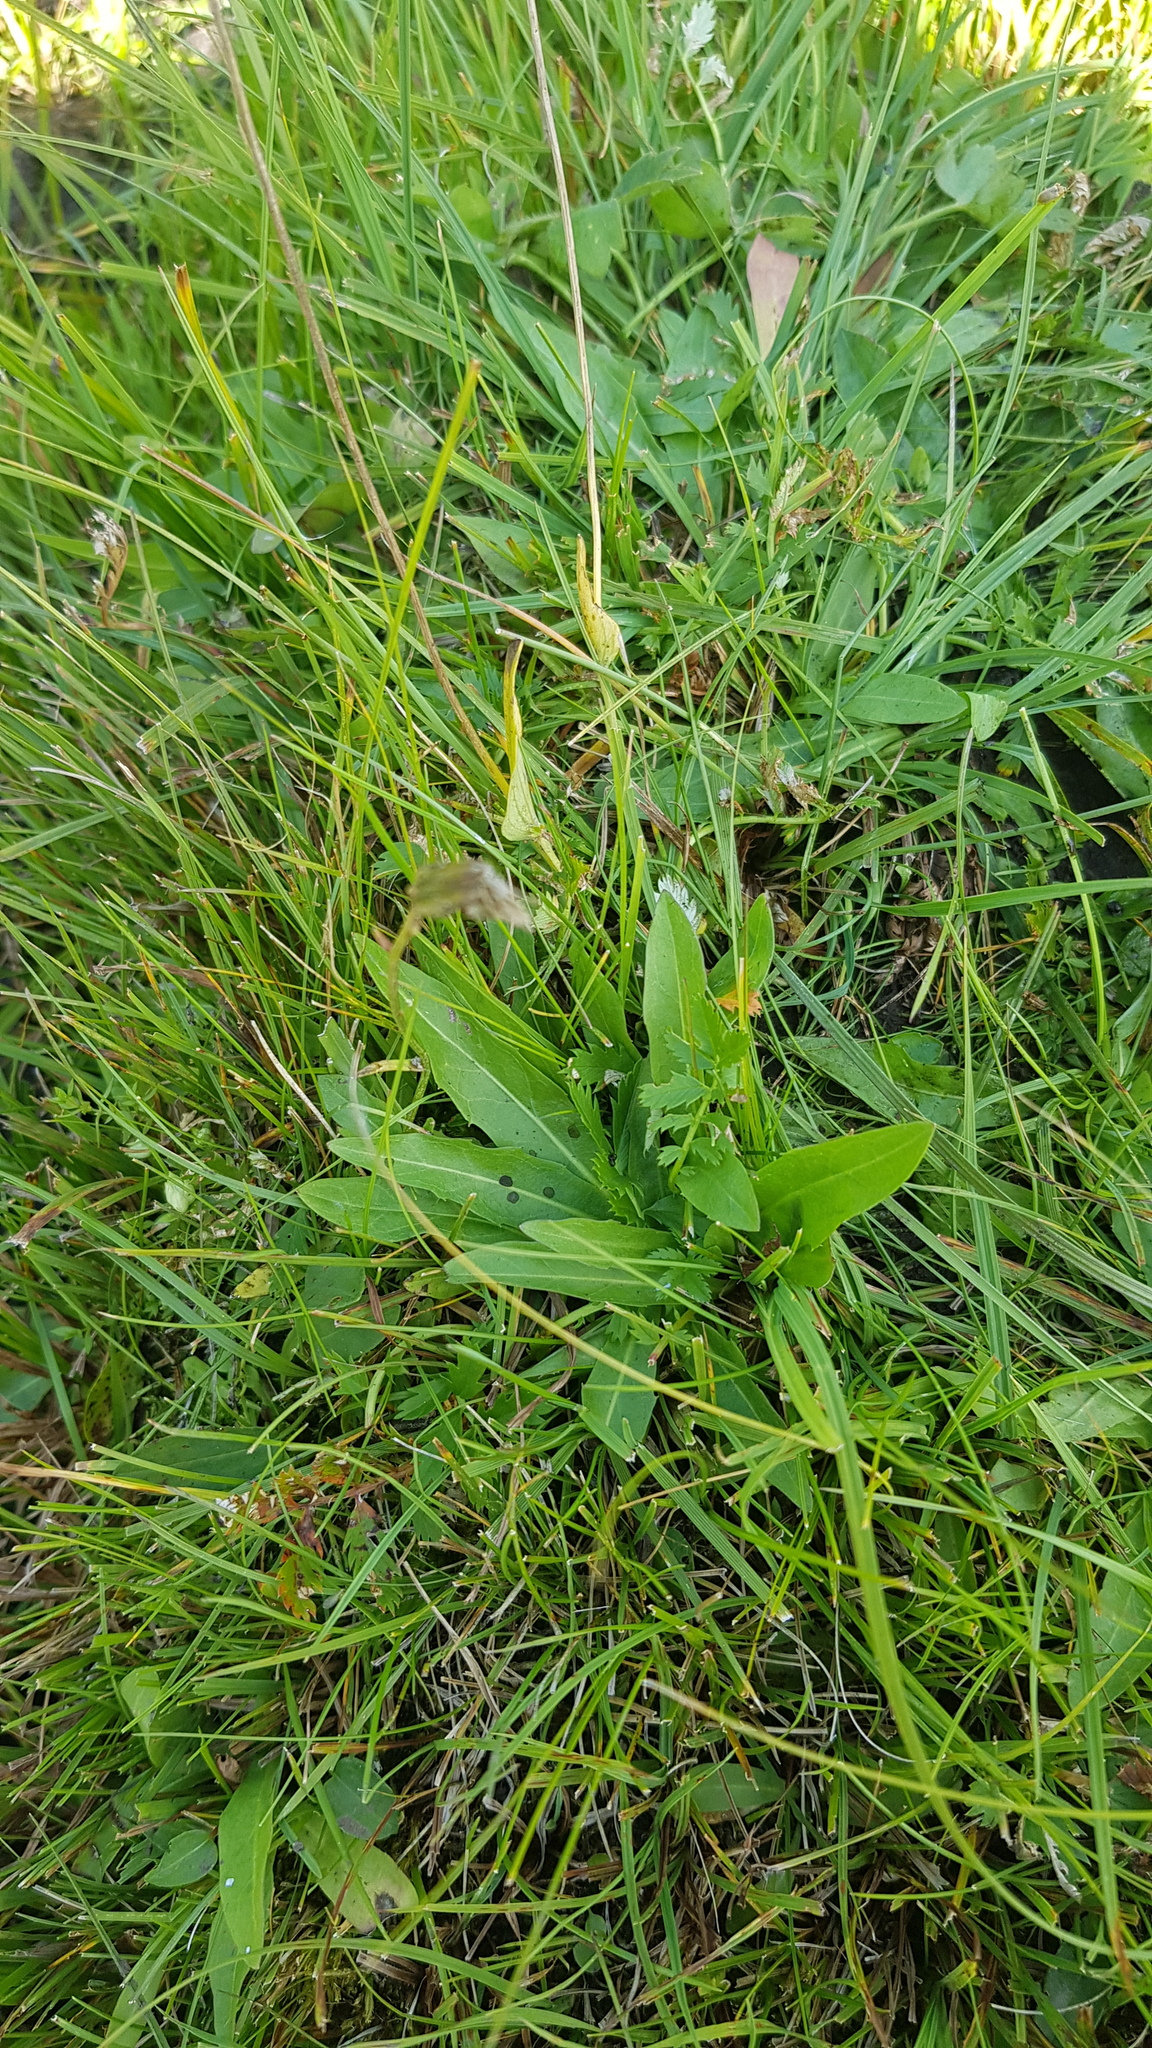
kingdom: Plantae
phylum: Tracheophyta
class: Magnoliopsida
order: Lamiales
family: Plantaginaceae
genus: Plantago
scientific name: Plantago depressa
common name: Depressed plantain
